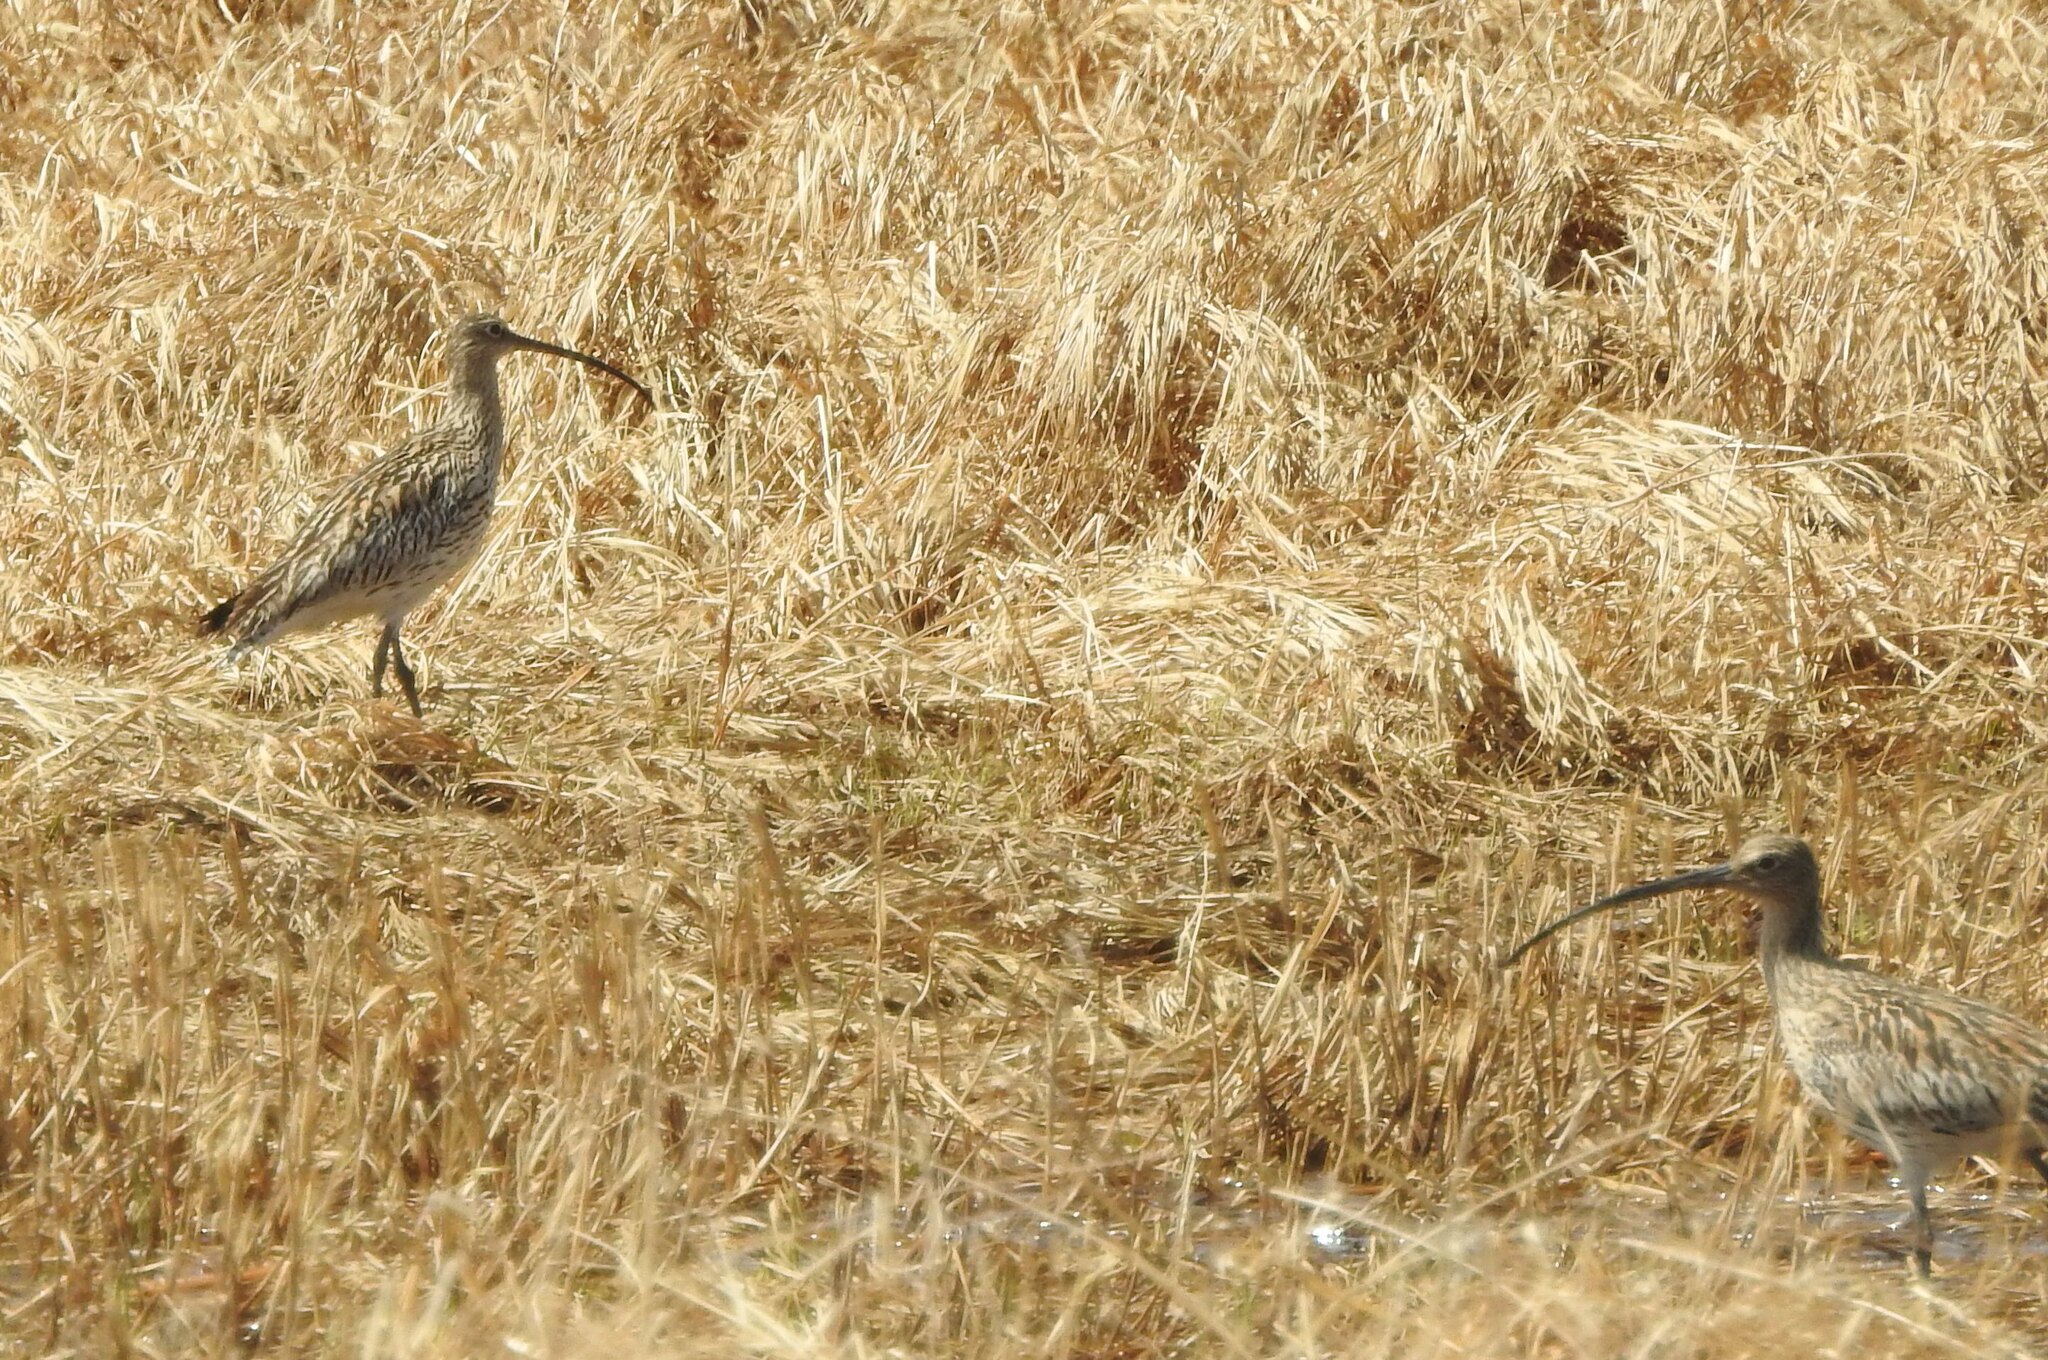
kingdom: Animalia
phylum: Chordata
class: Aves
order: Charadriiformes
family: Scolopacidae
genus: Numenius
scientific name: Numenius arquata
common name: Eurasian curlew
